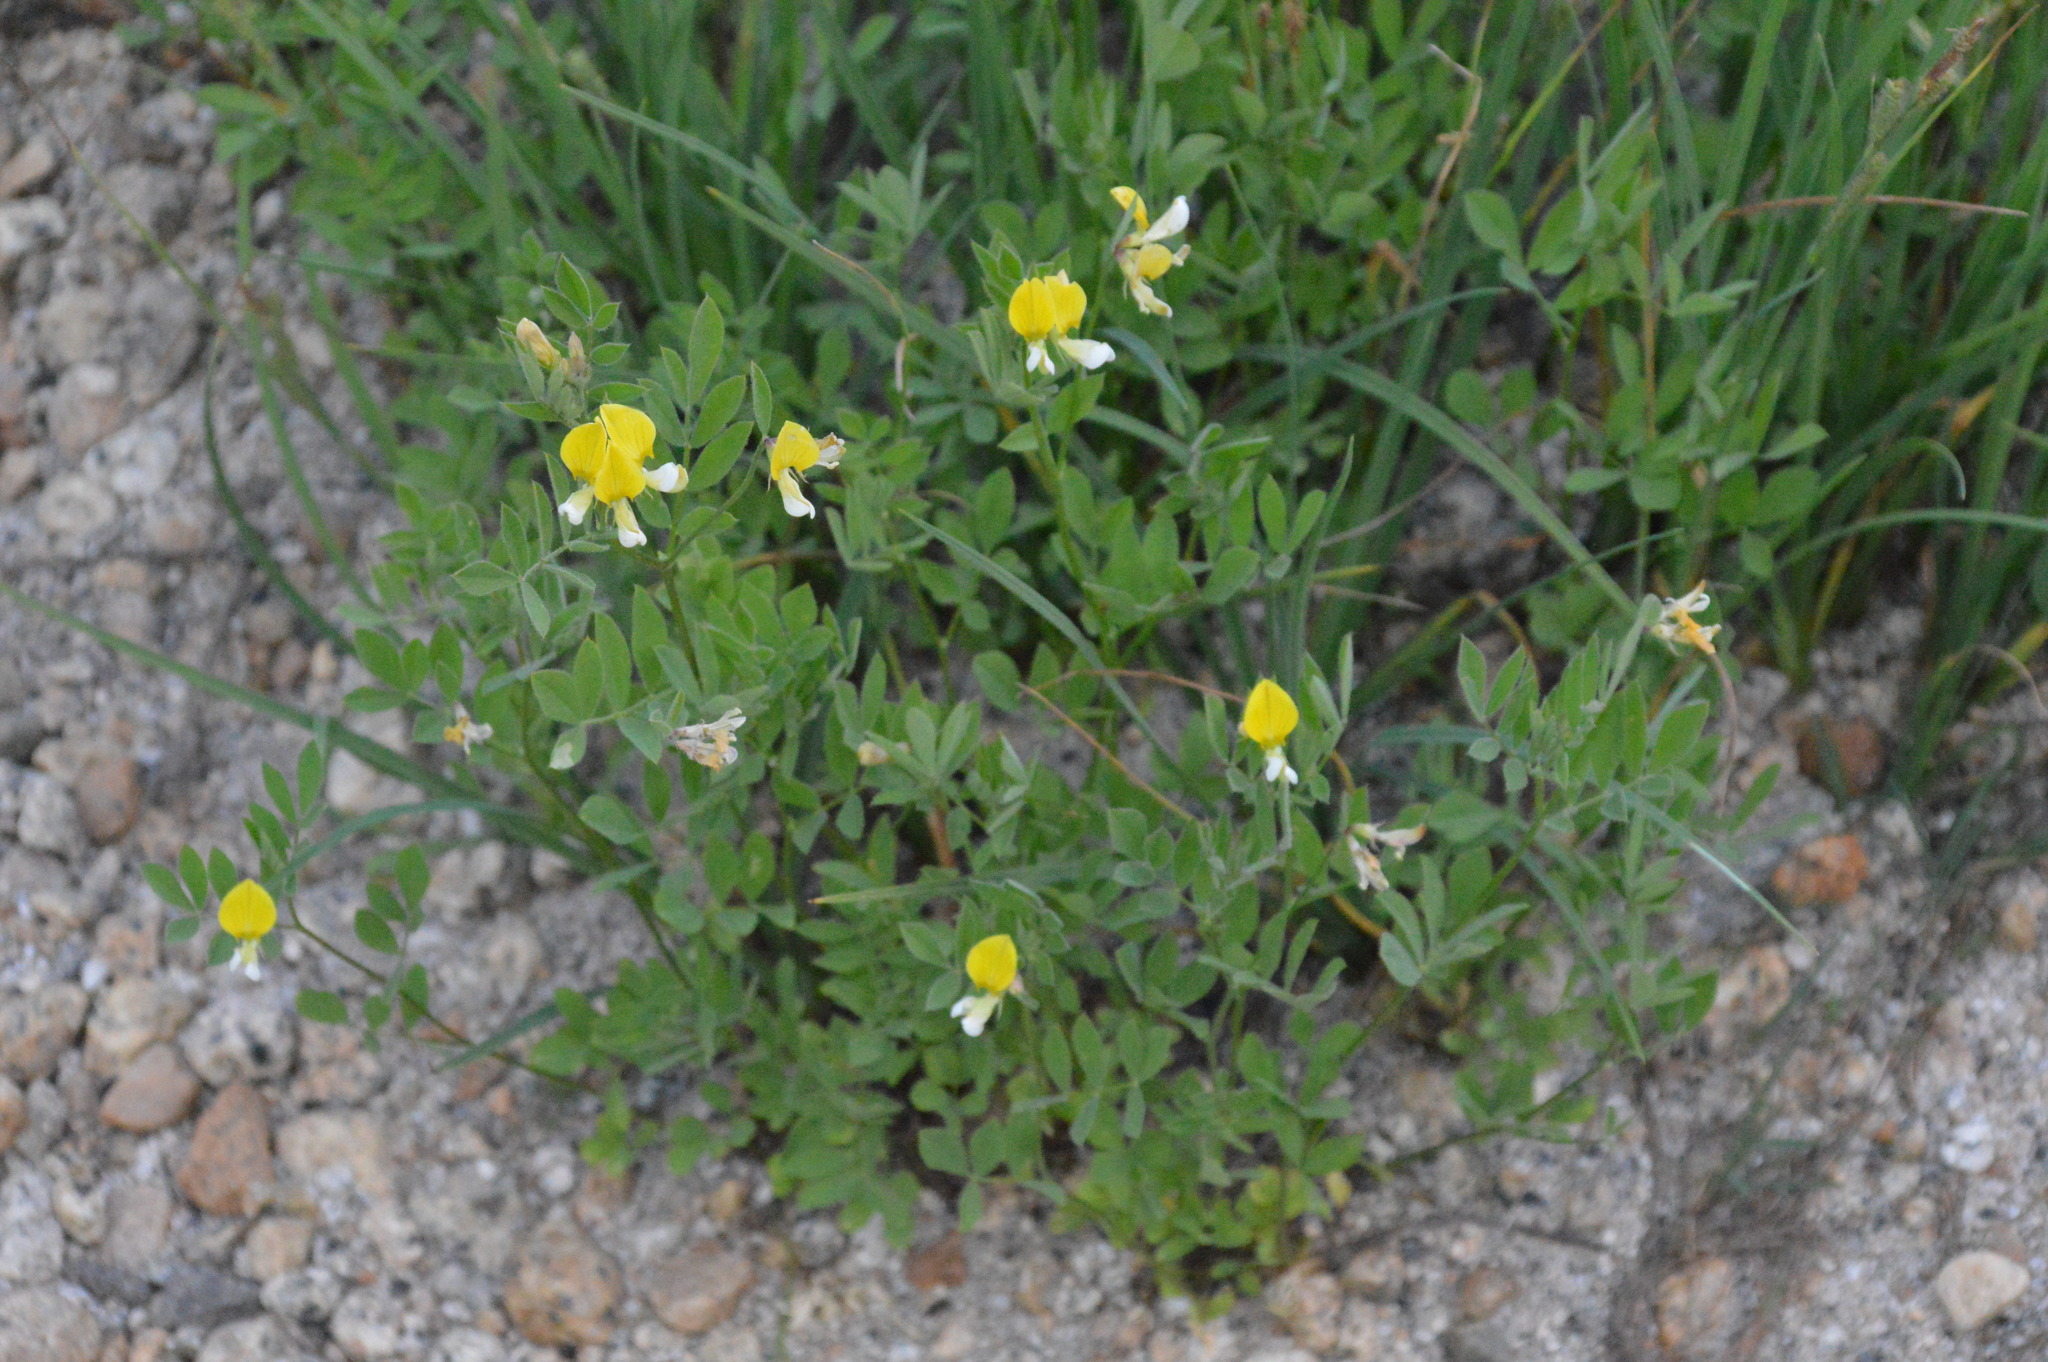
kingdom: Plantae
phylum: Tracheophyta
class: Magnoliopsida
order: Fabales
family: Fabaceae
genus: Hosackia
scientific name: Hosackia oblongifolia
